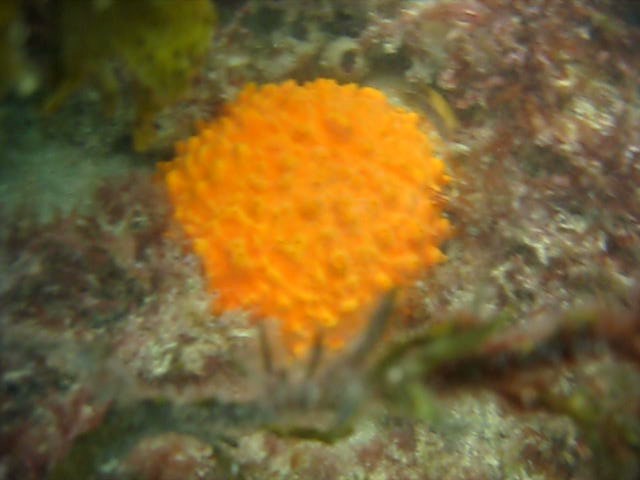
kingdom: Animalia
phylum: Porifera
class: Demospongiae
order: Polymastiida
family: Polymastiidae
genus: Polymastia
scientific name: Polymastia aurantia
